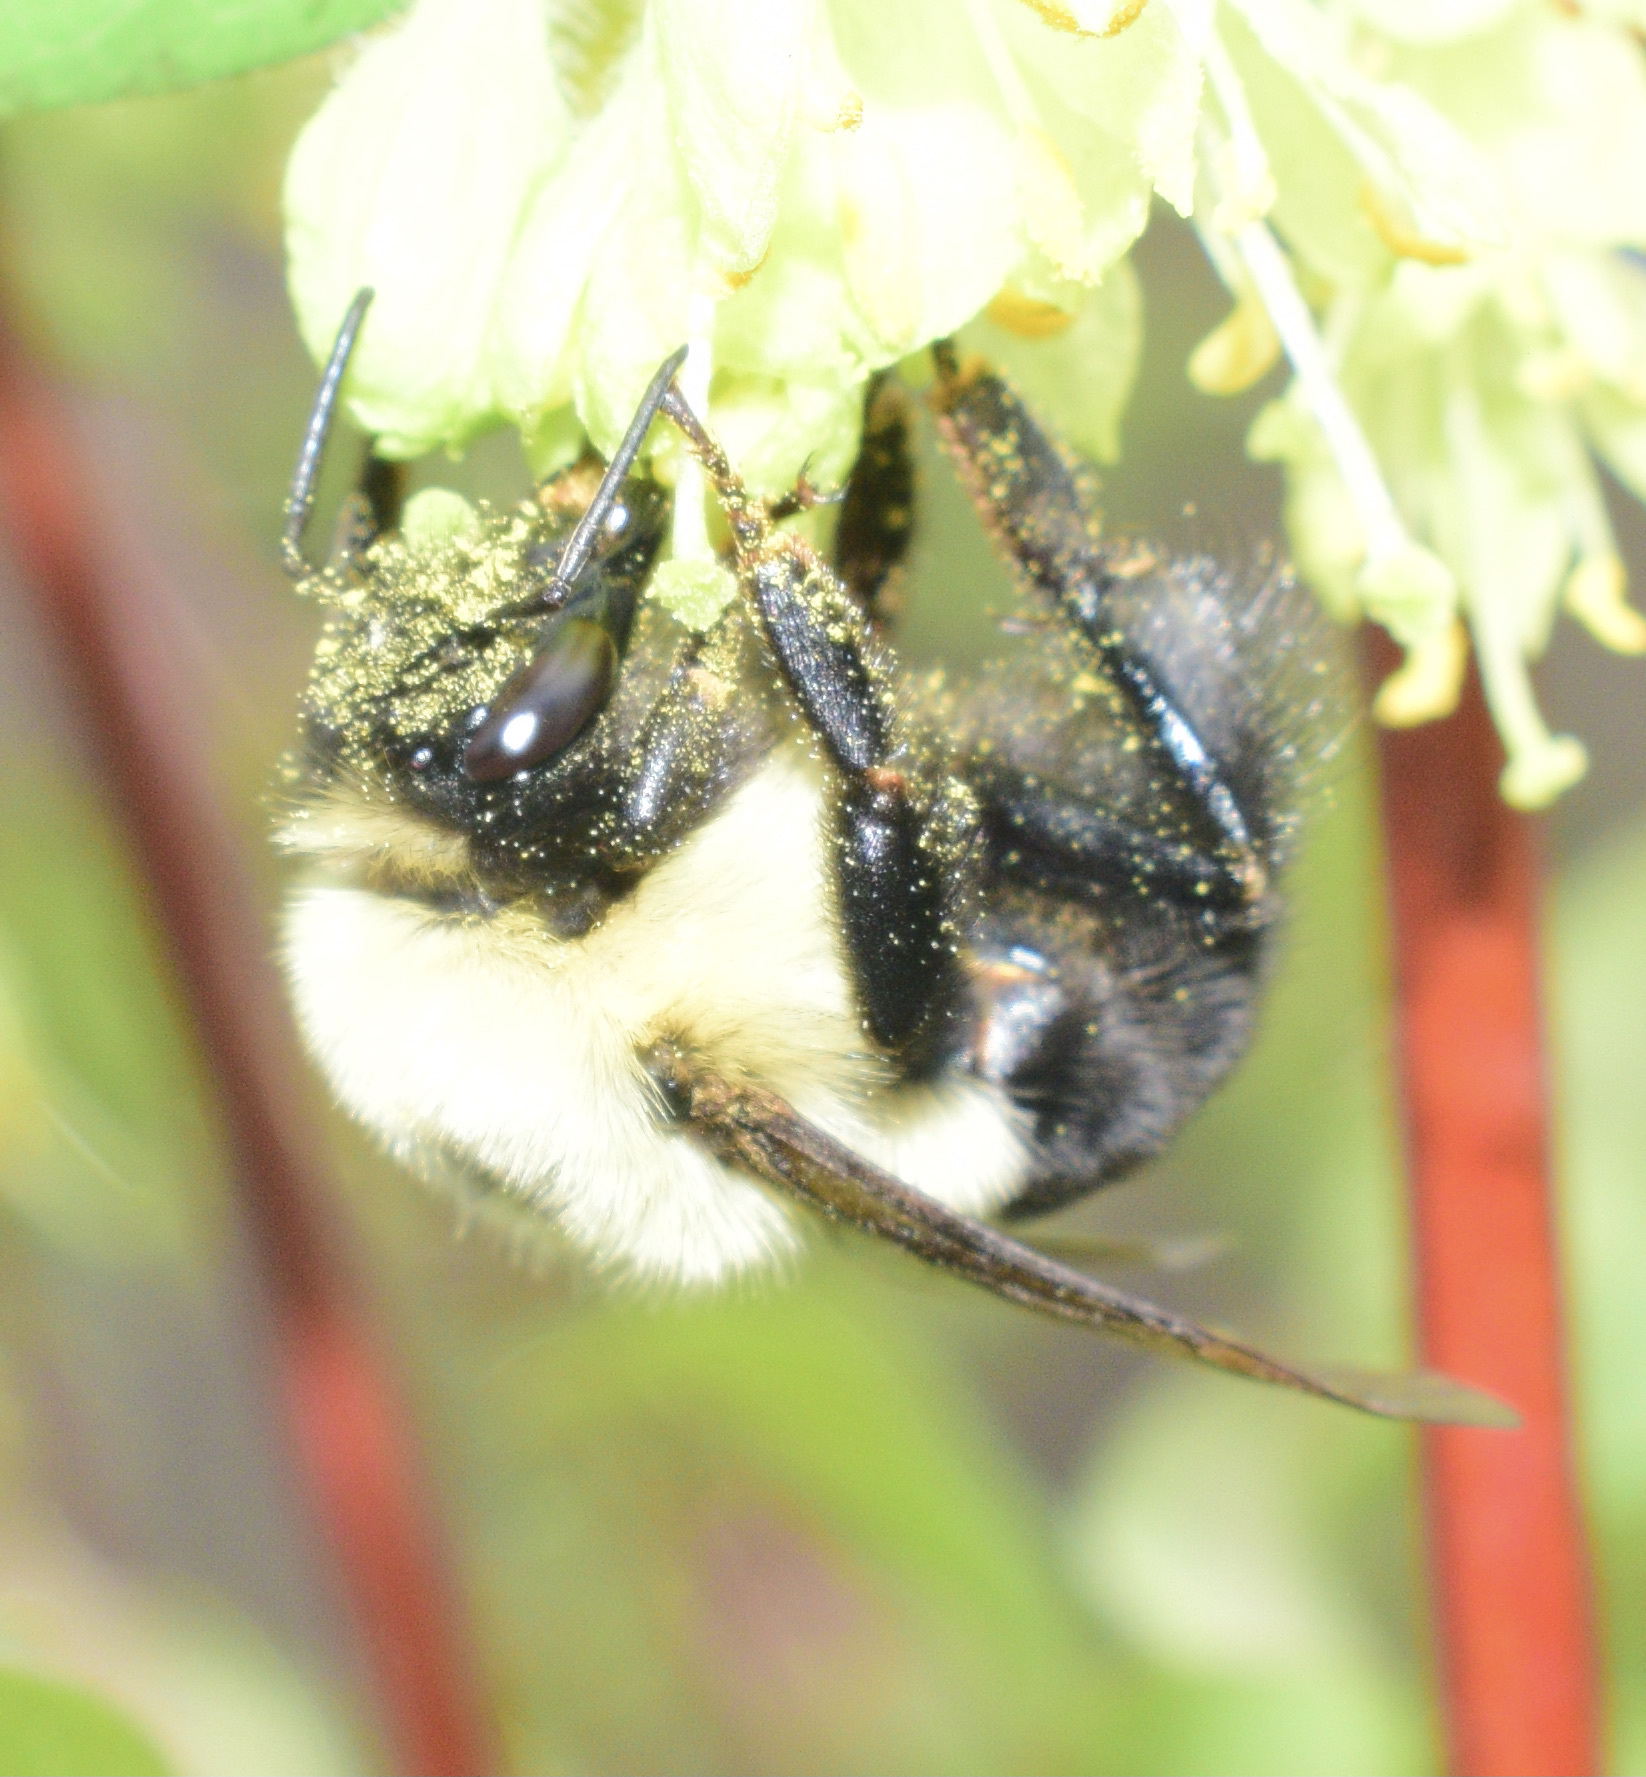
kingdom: Animalia
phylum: Arthropoda
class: Insecta
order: Hymenoptera
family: Apidae
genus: Bombus
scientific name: Bombus bimaculatus
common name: Two-spotted bumble bee
